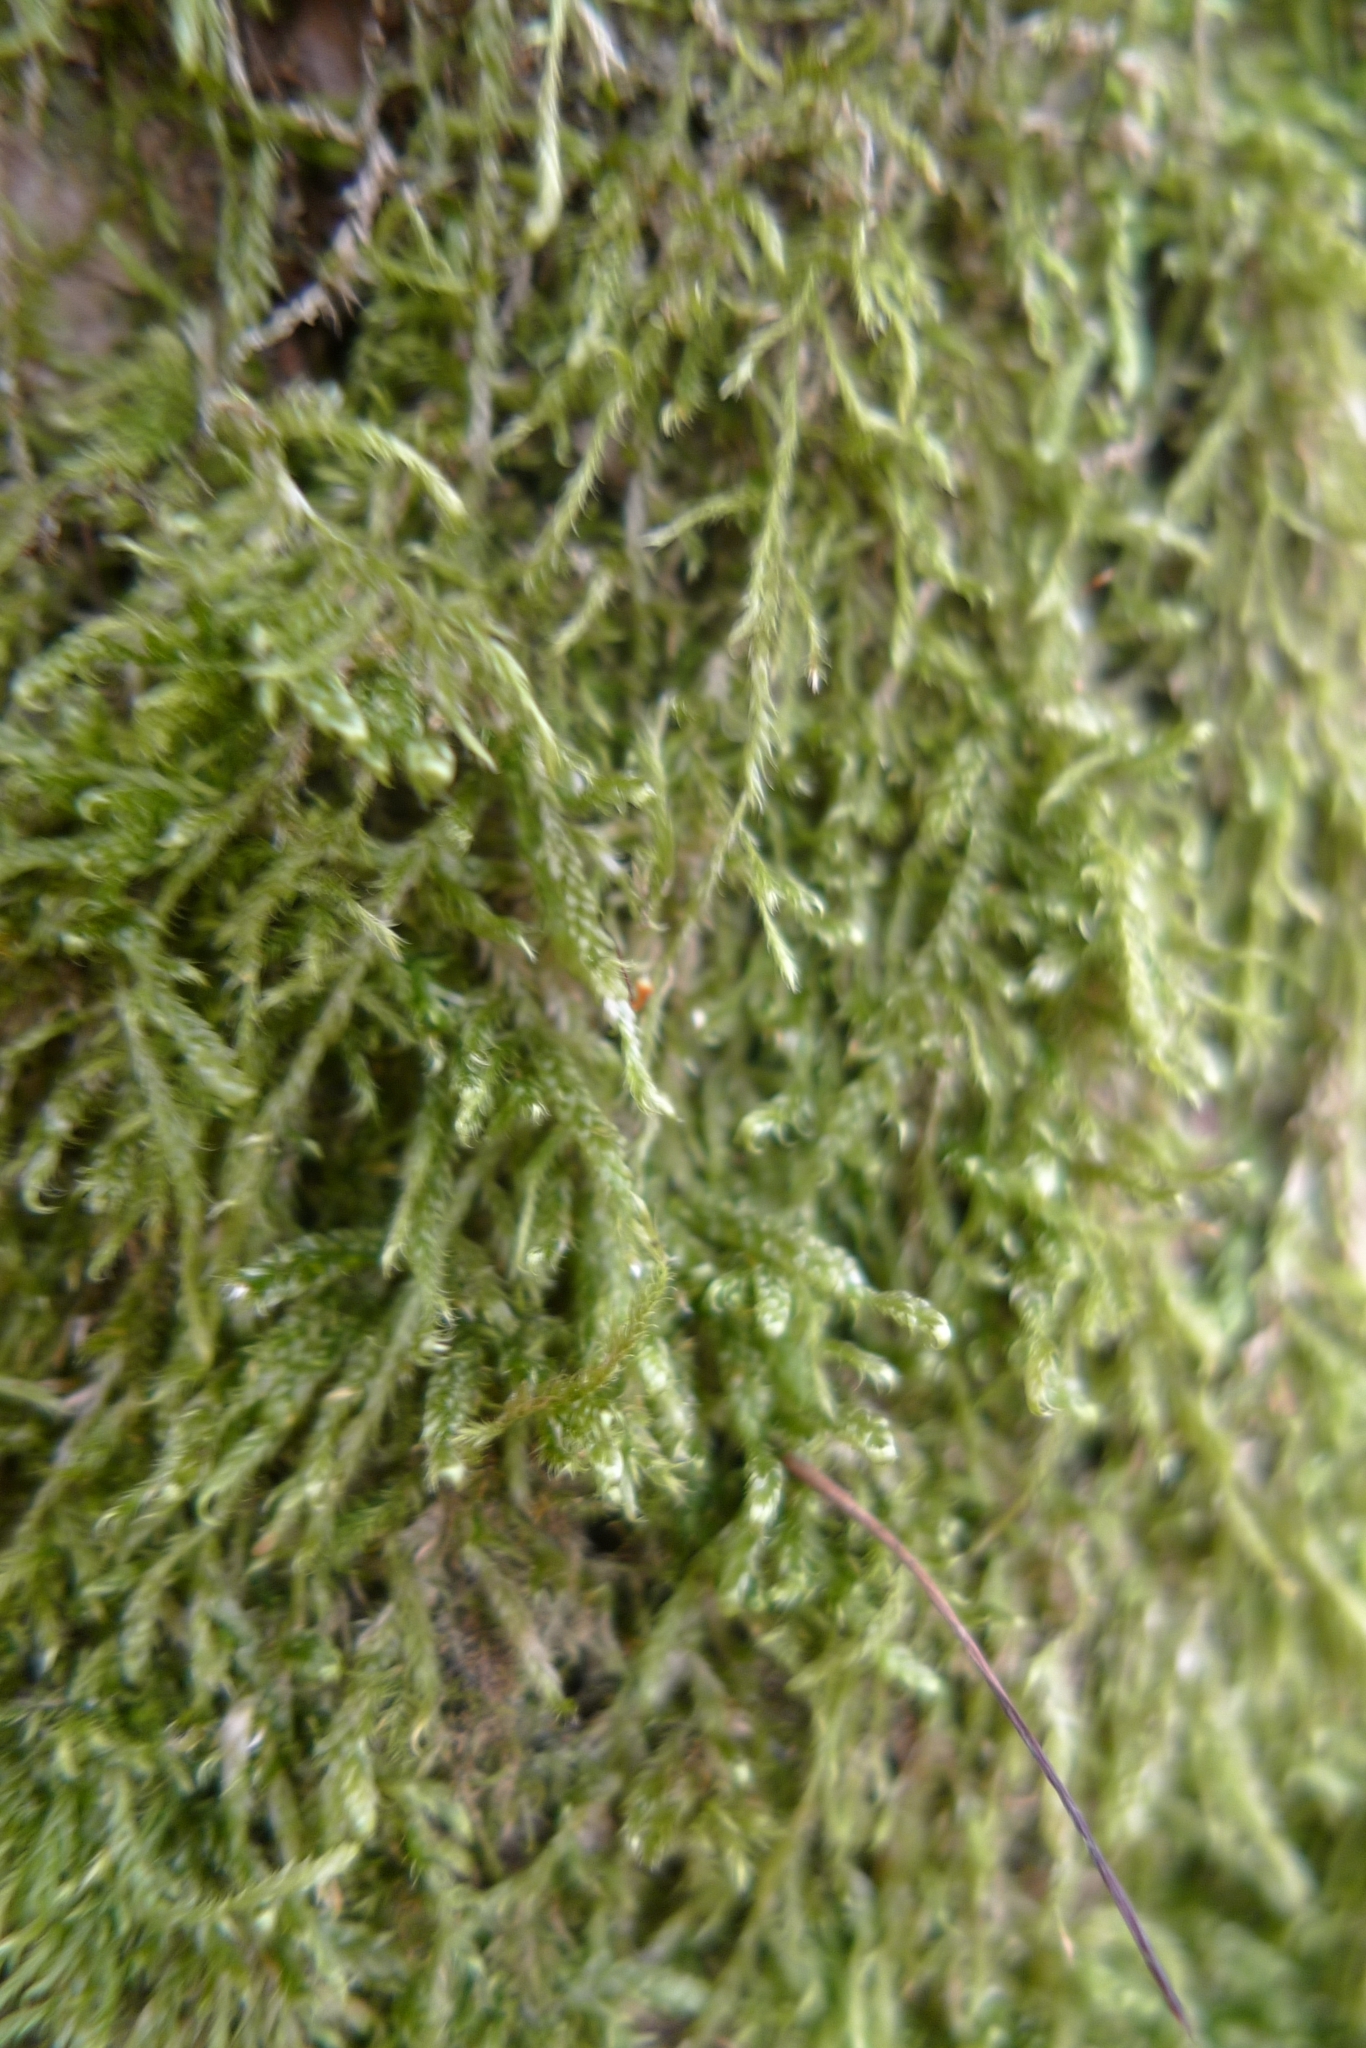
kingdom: Plantae
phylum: Bryophyta
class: Bryopsida
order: Hypnales
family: Hypnaceae
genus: Hypnum
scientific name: Hypnum cupressiforme
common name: Cypress-leaved plait-moss
